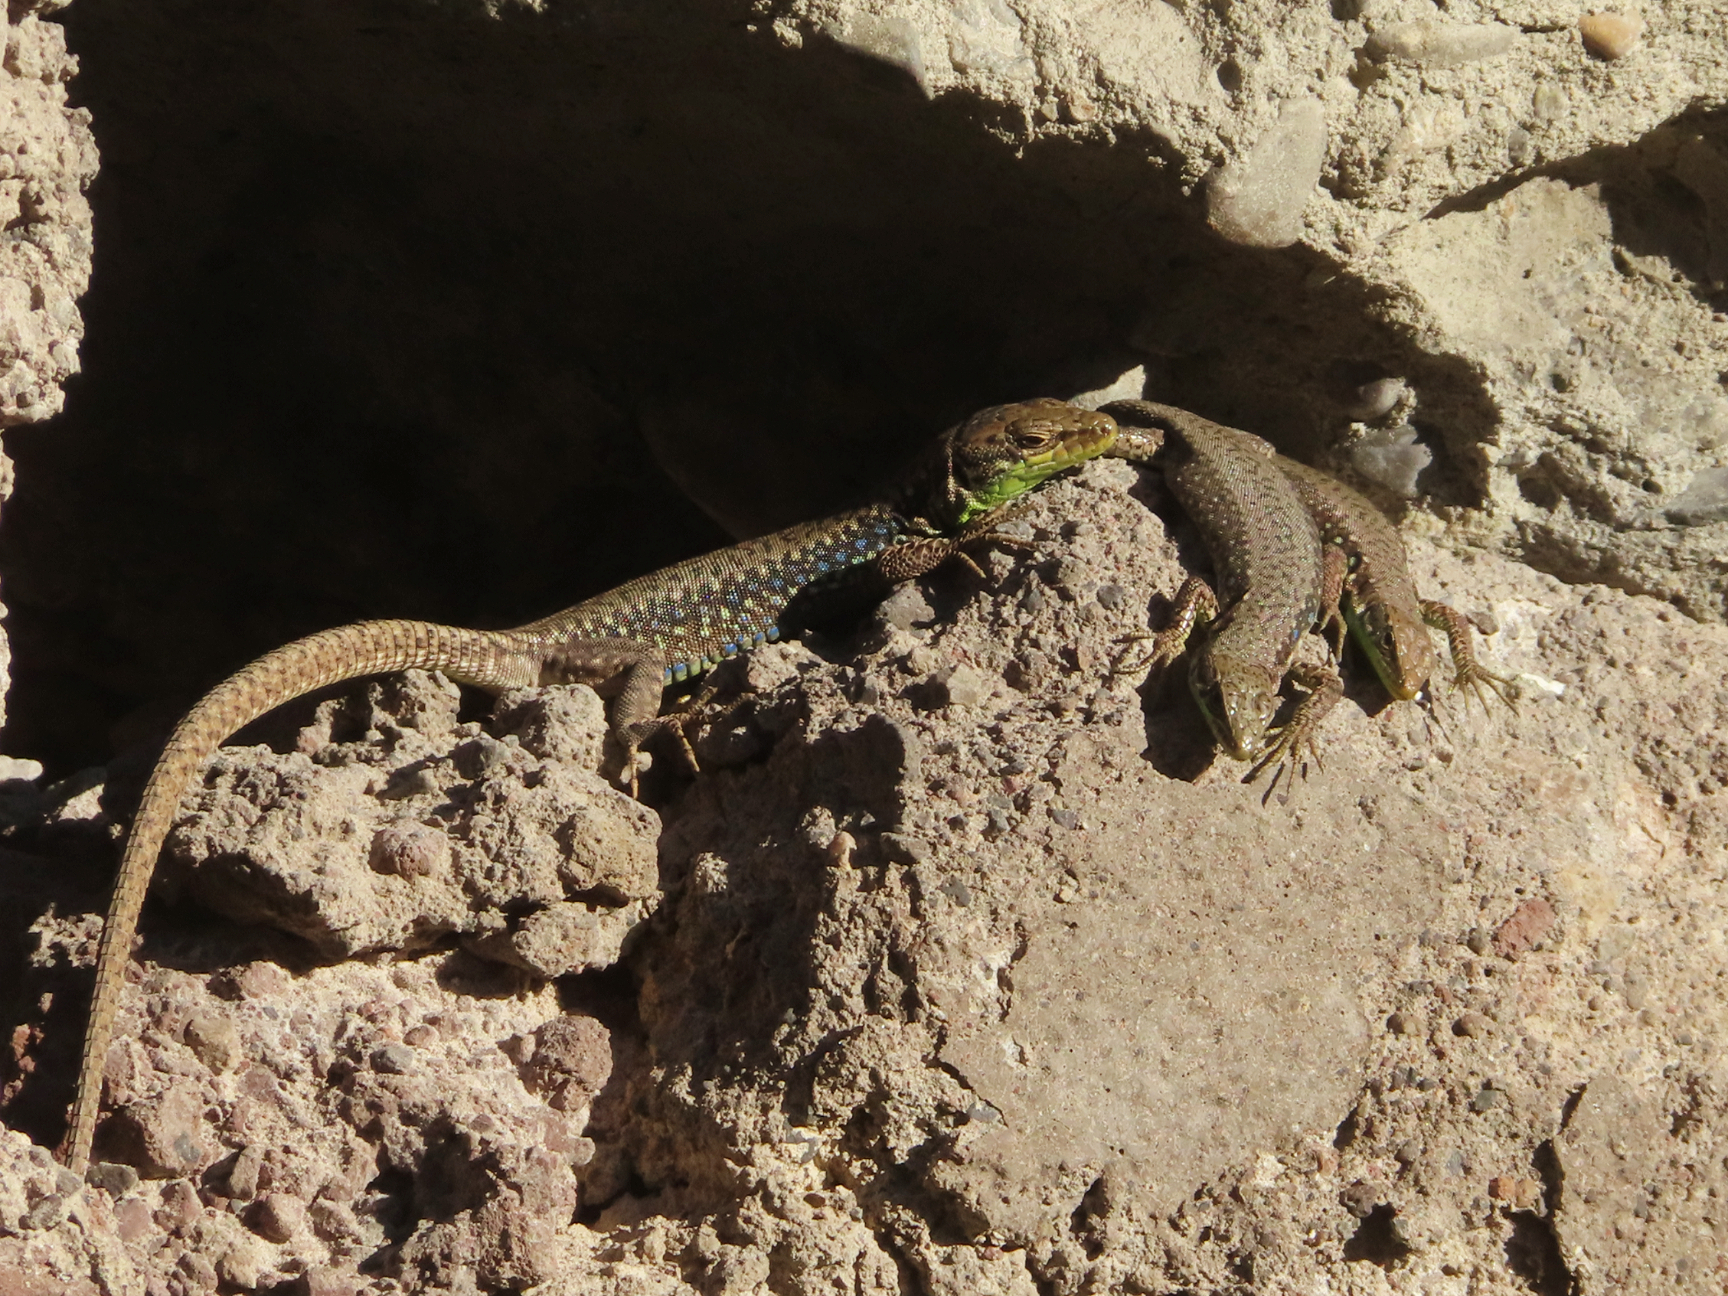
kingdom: Animalia
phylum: Chordata
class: Squamata
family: Lacertidae
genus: Darevskia
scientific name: Darevskia raddei
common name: Radde's lizard
